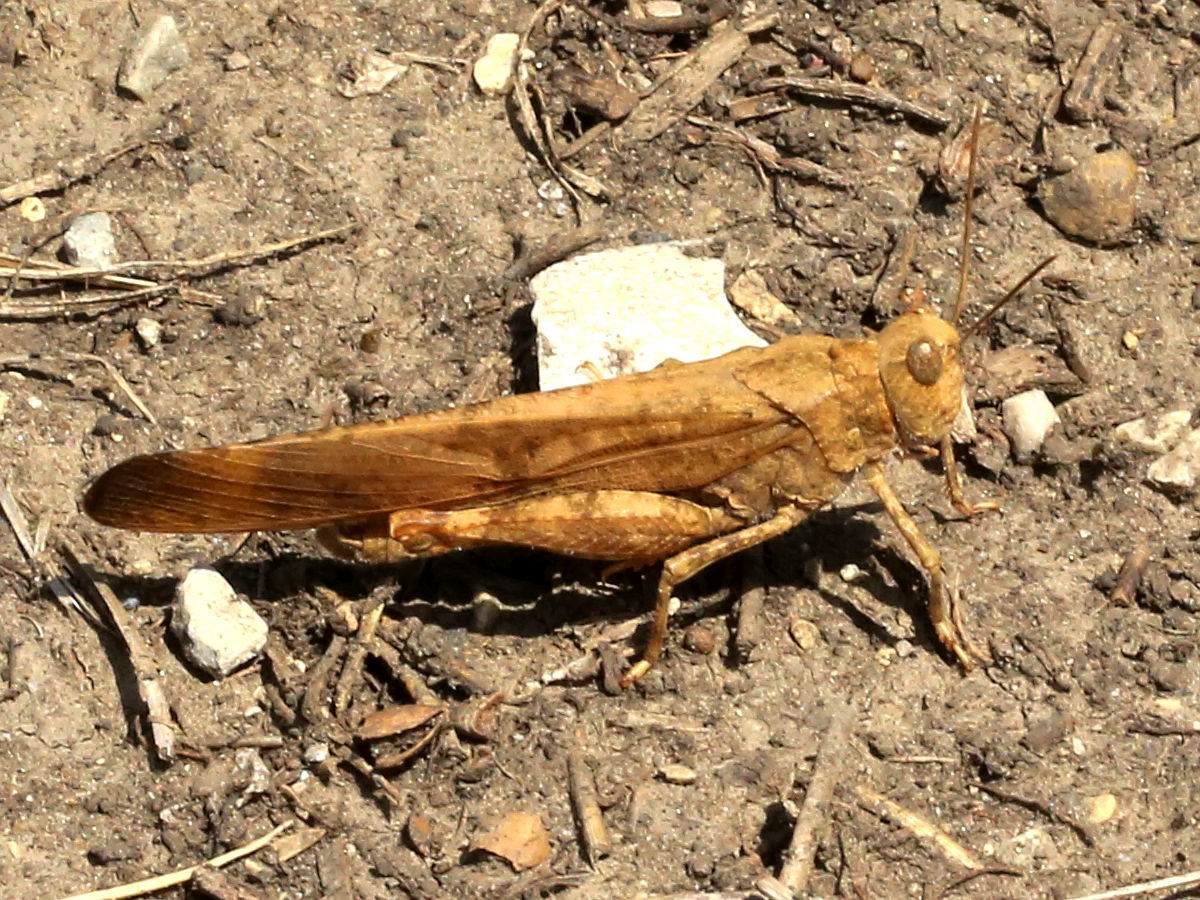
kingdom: Animalia
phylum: Arthropoda
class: Insecta
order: Orthoptera
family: Acrididae
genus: Dissosteira
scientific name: Dissosteira carolina
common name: Carolina grasshopper
